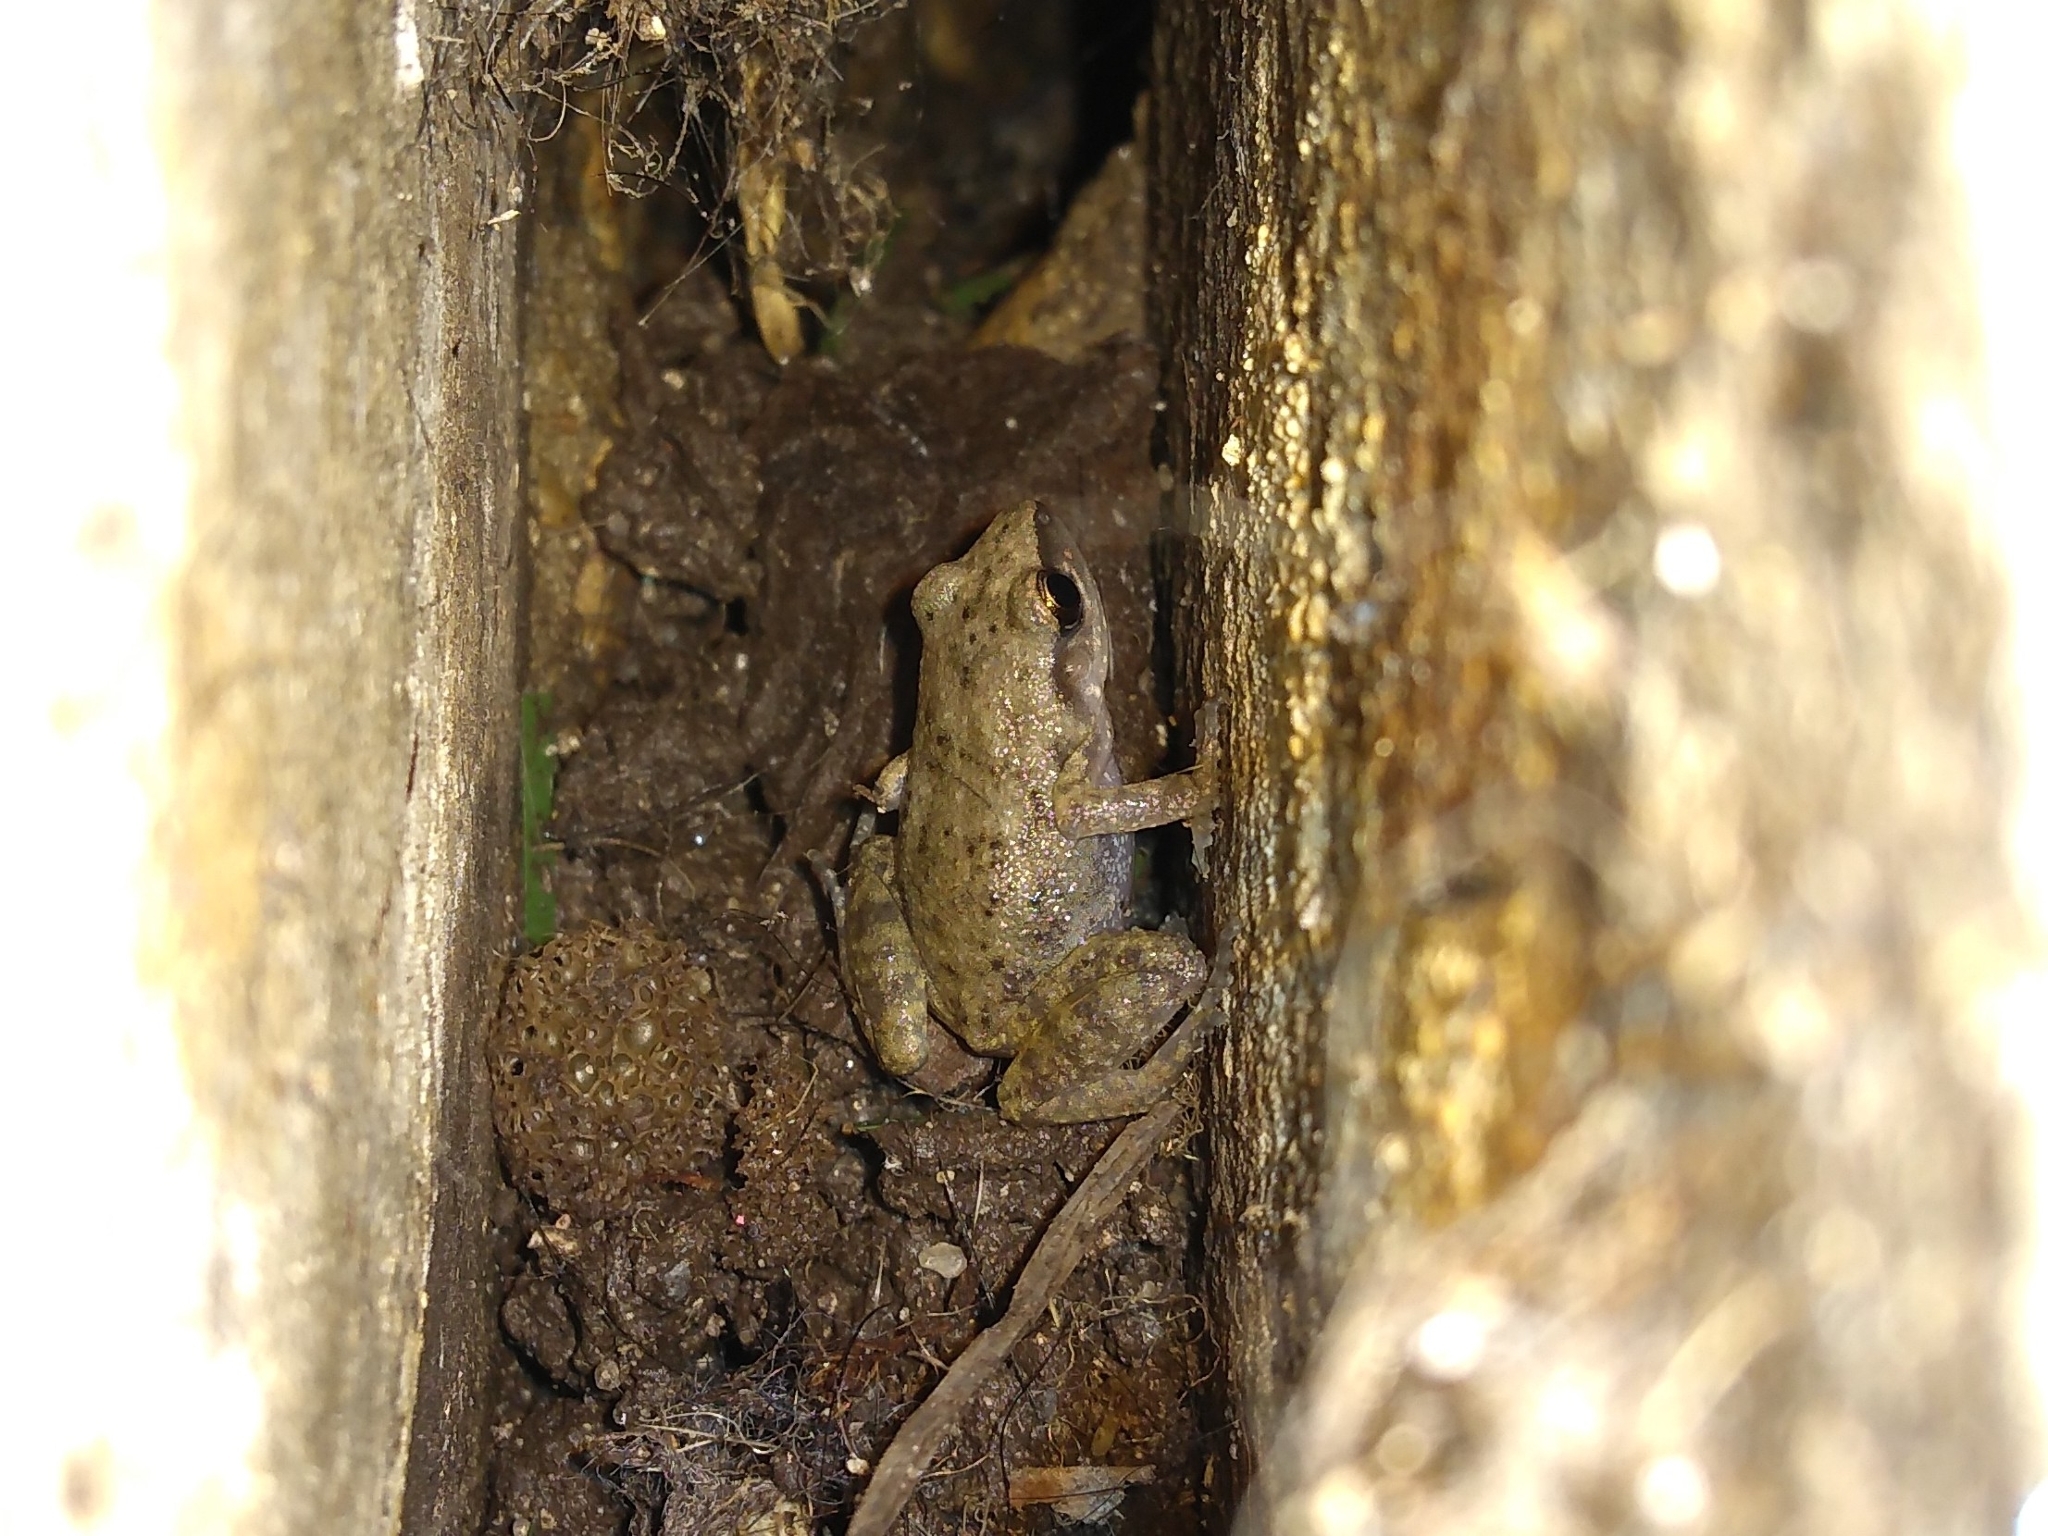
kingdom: Animalia
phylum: Chordata
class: Amphibia
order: Anura
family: Eleutherodactylidae
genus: Eleutherodactylus
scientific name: Eleutherodactylus campi
